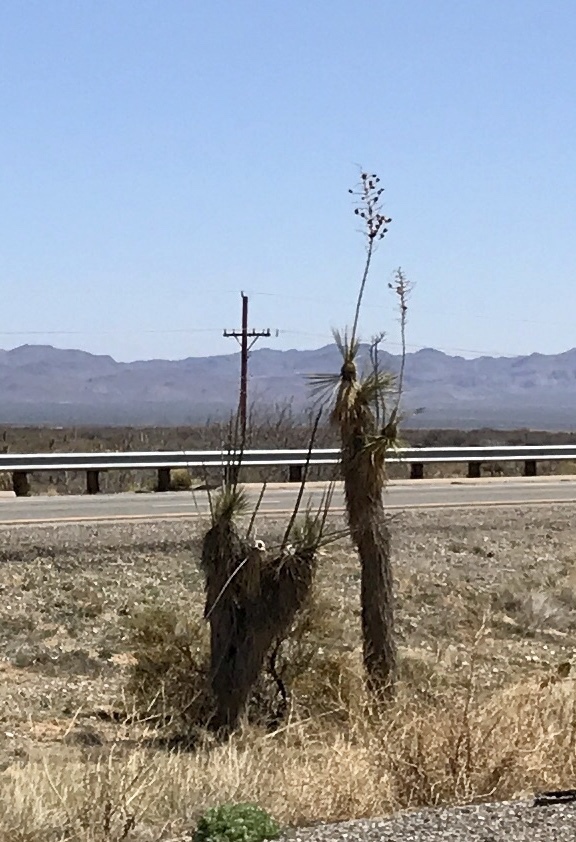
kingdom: Plantae
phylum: Tracheophyta
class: Liliopsida
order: Asparagales
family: Asparagaceae
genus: Yucca
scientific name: Yucca elata
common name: Palmella
